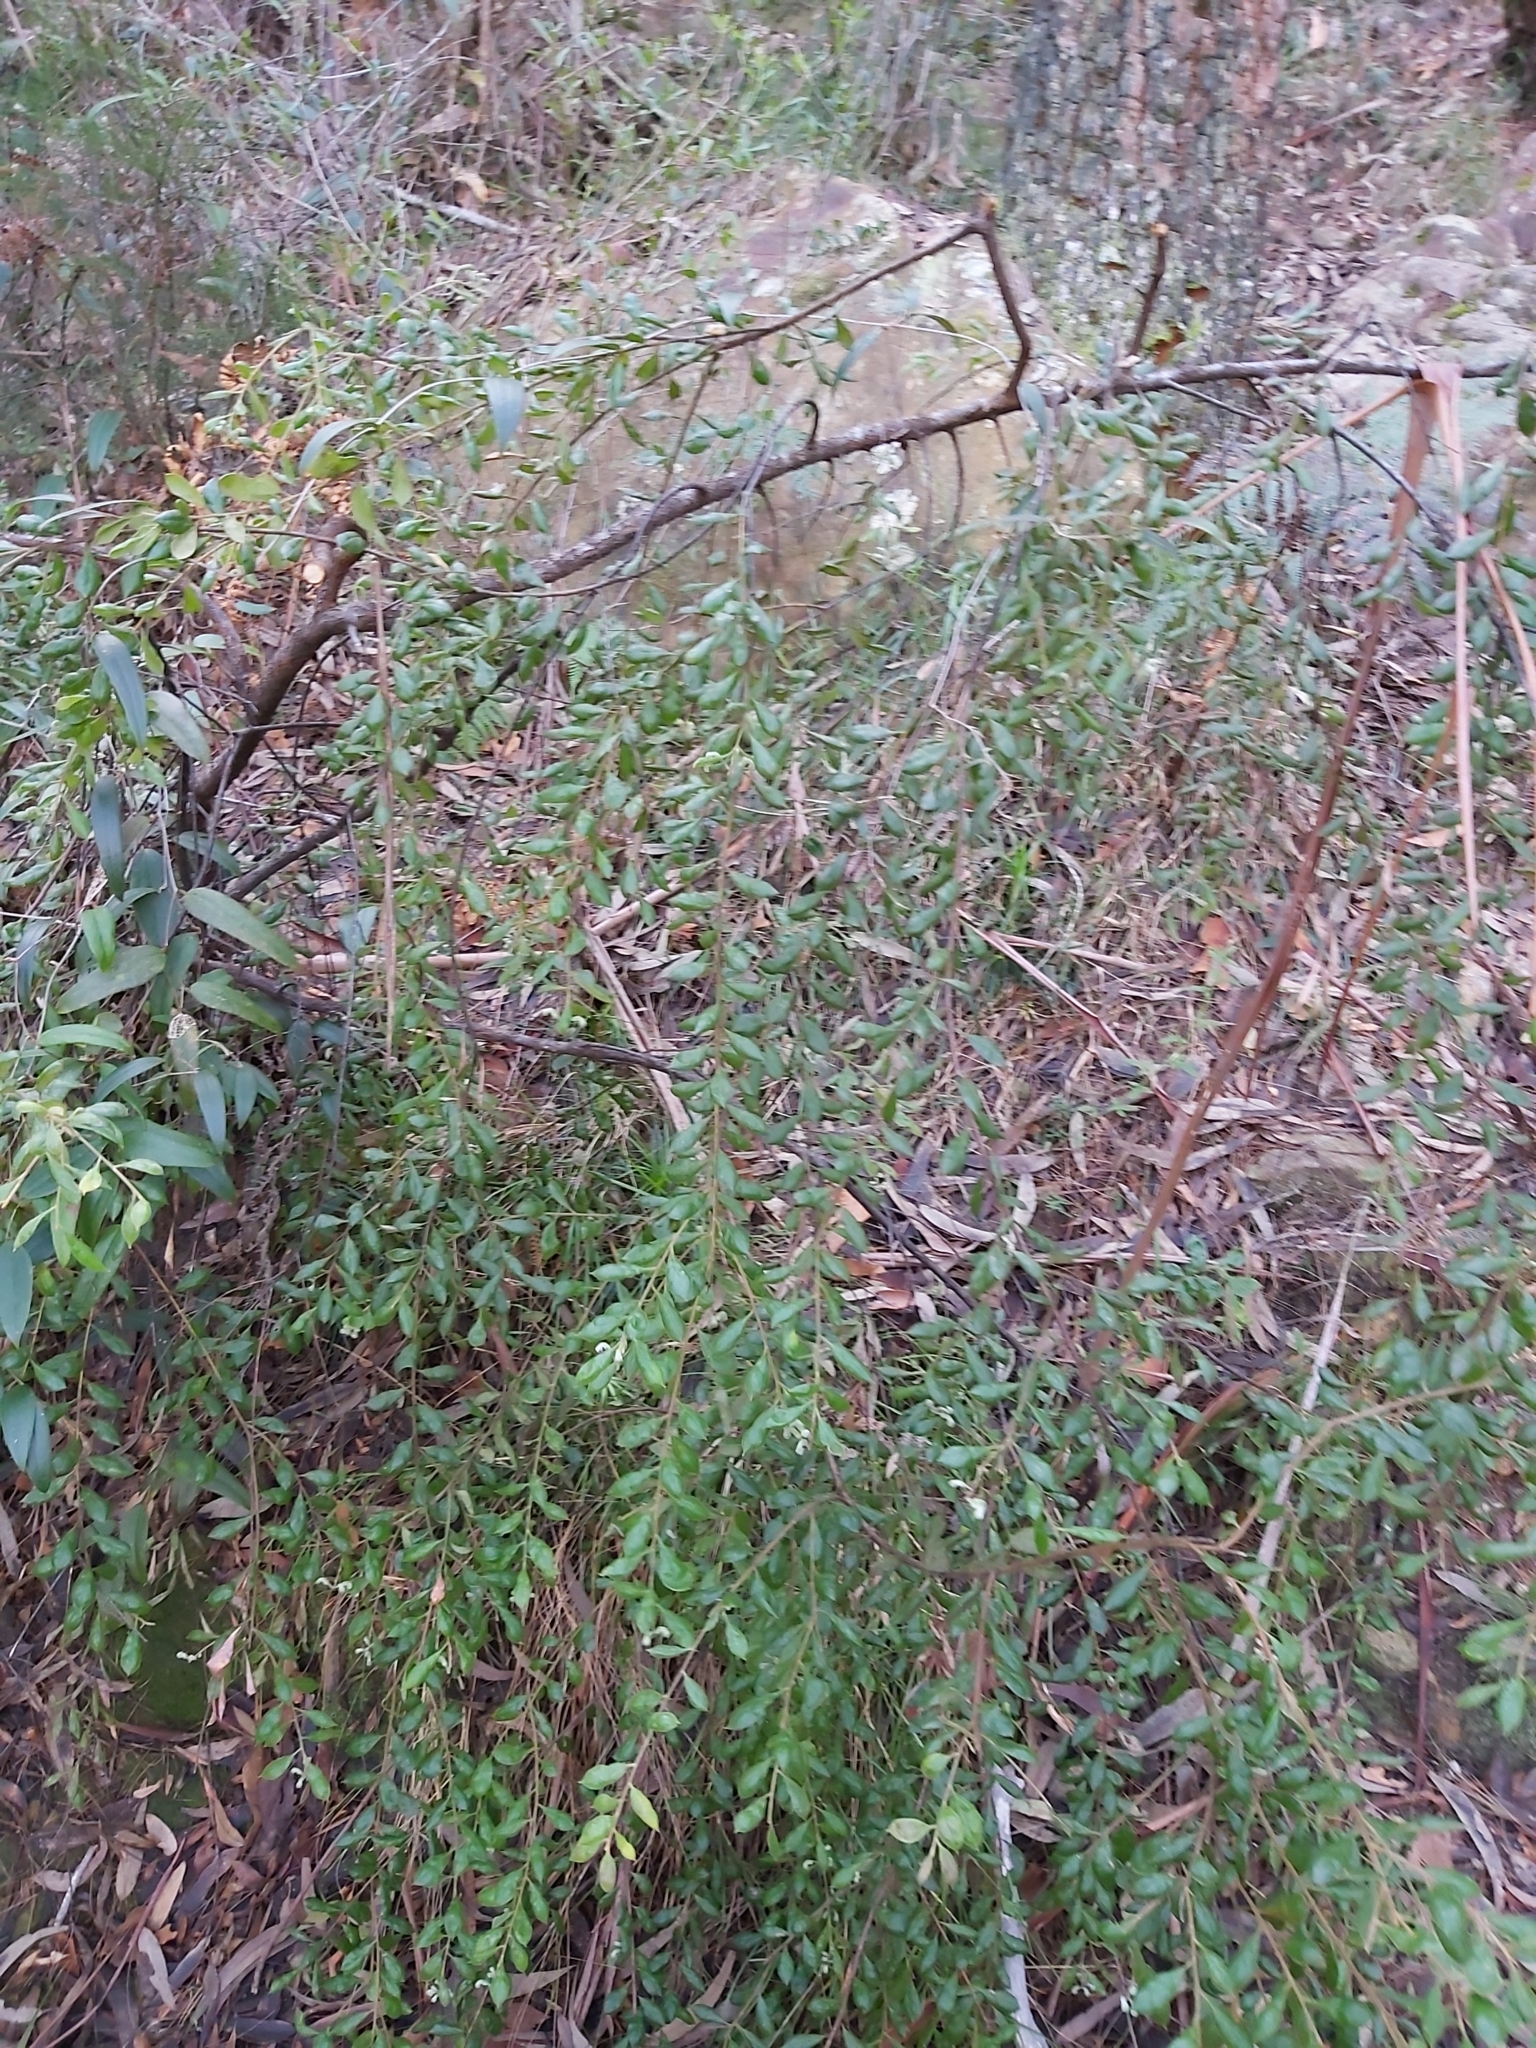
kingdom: Plantae
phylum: Tracheophyta
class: Magnoliopsida
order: Proteales
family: Proteaceae
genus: Grevillea
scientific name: Grevillea mucronulata
